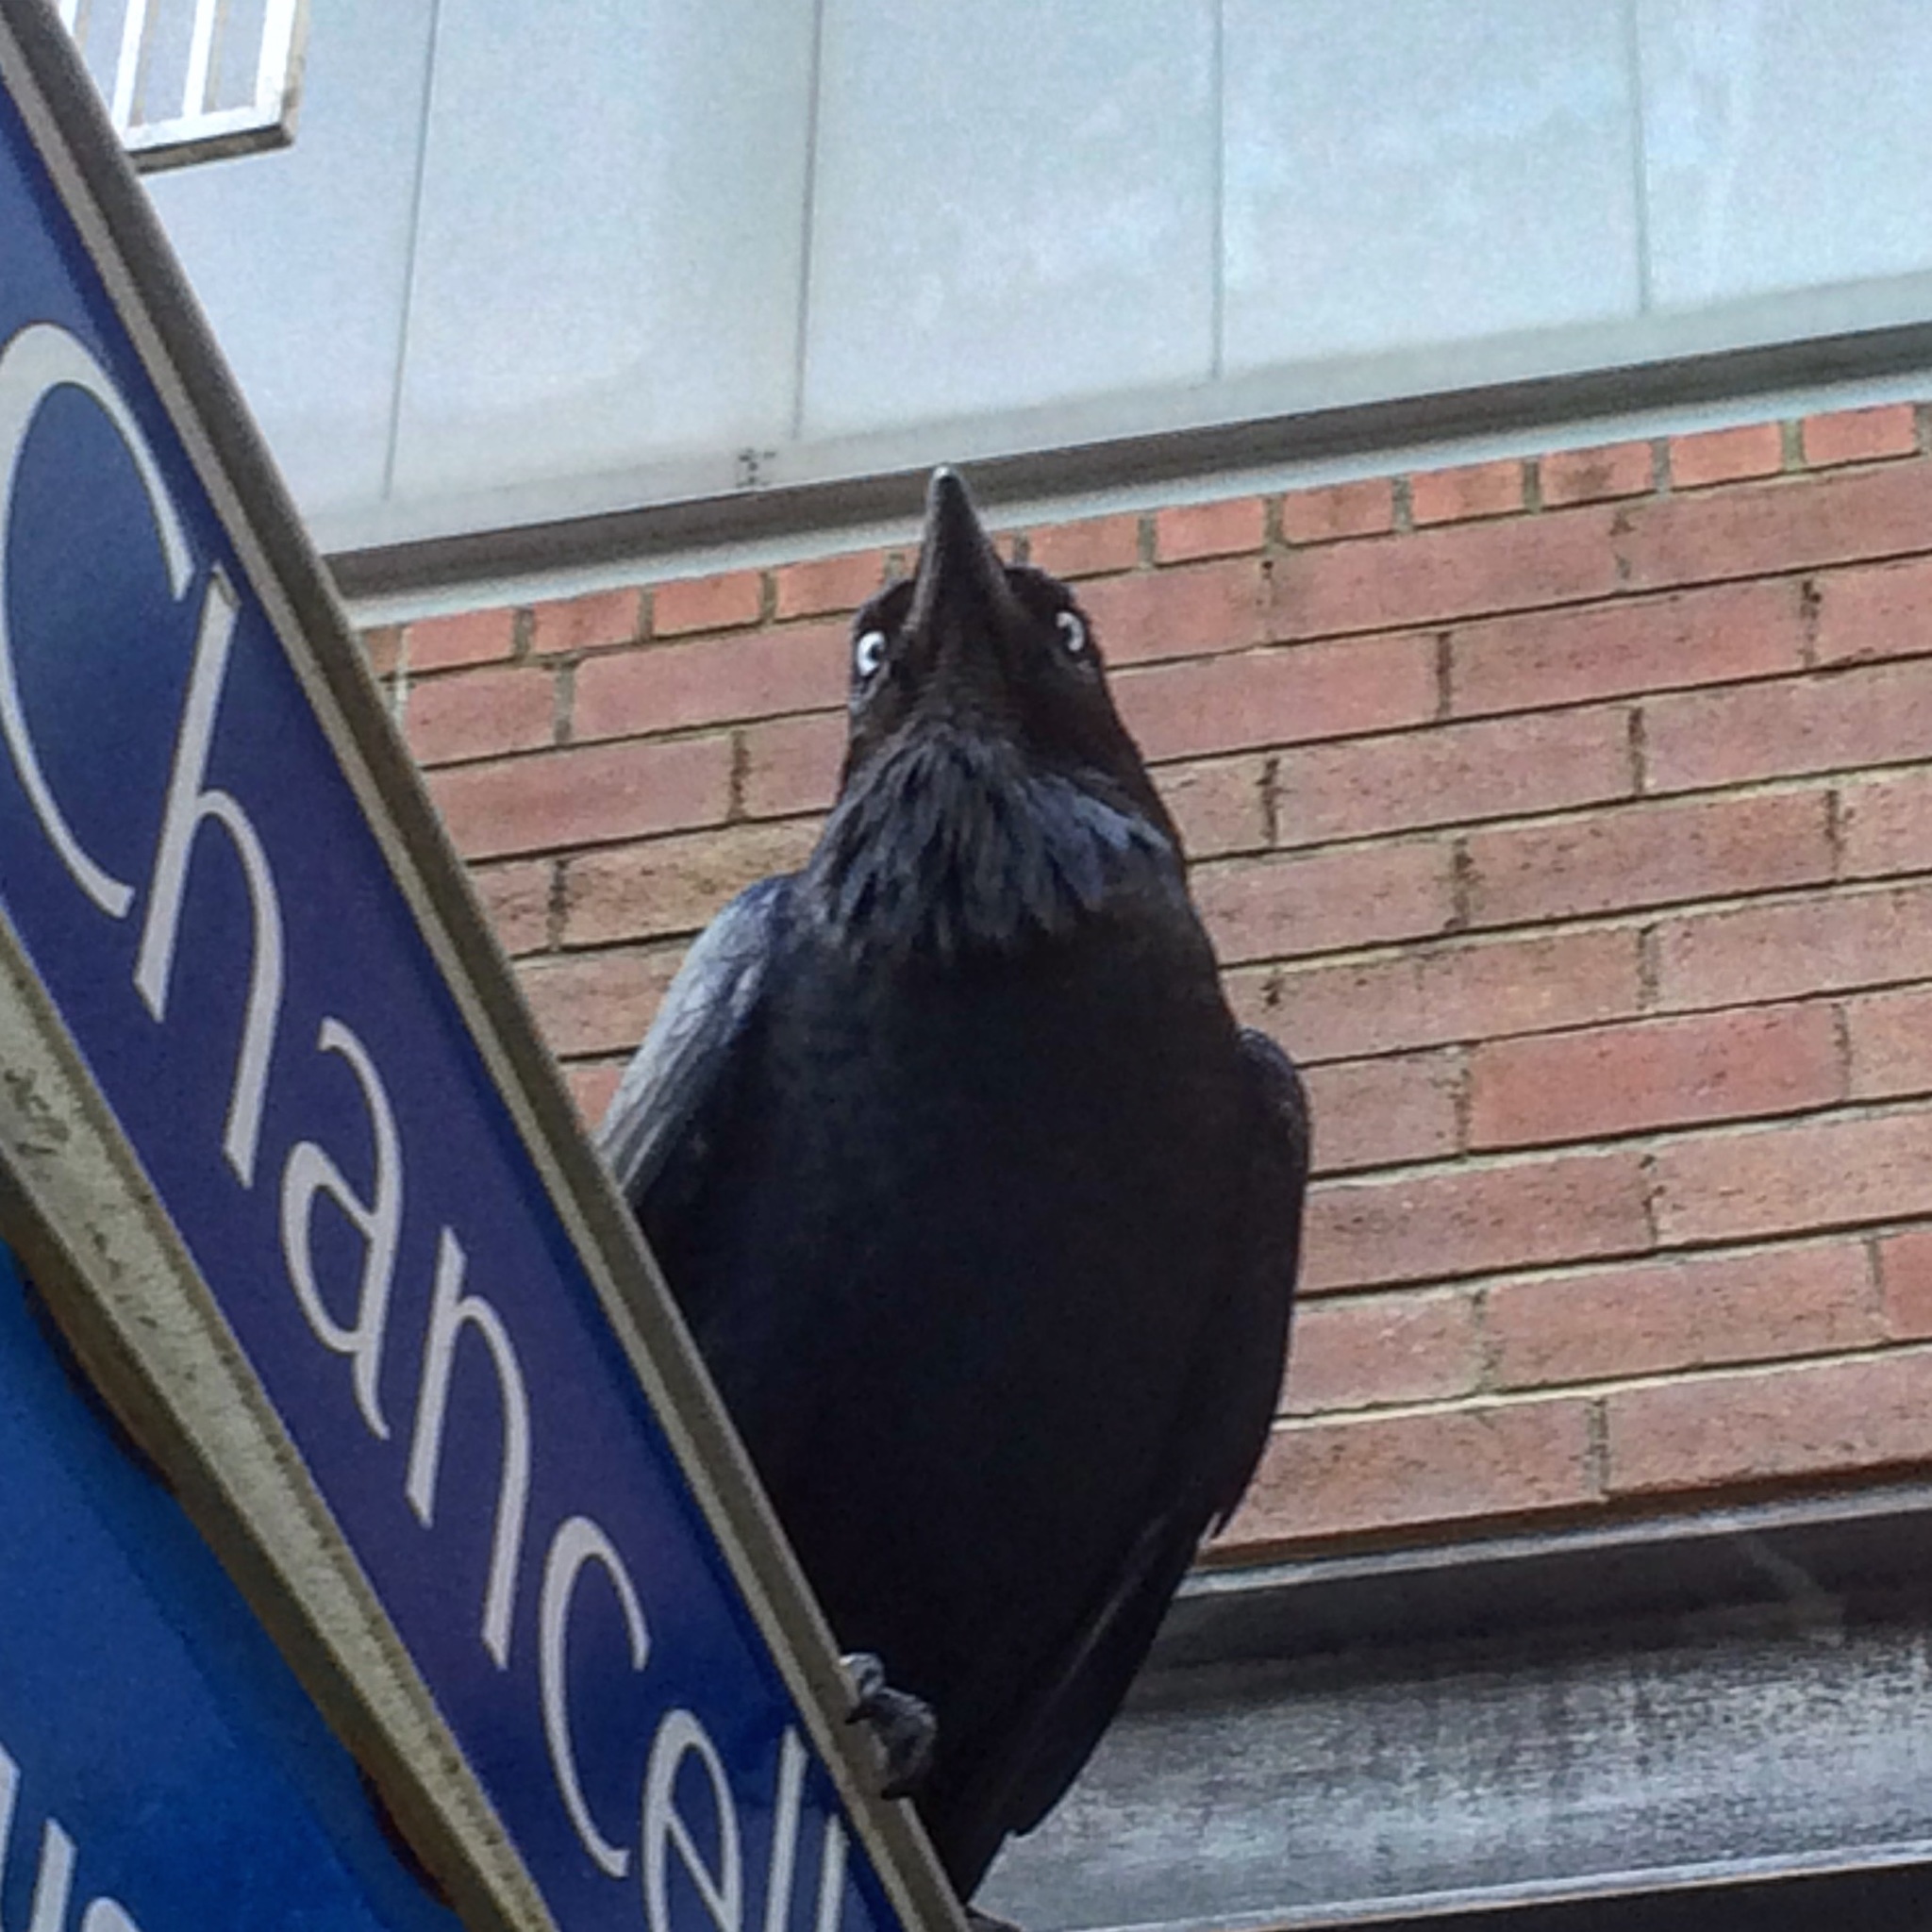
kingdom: Animalia
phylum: Chordata
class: Aves
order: Passeriformes
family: Corvidae
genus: Corvus
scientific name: Corvus coronoides
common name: Australian raven
